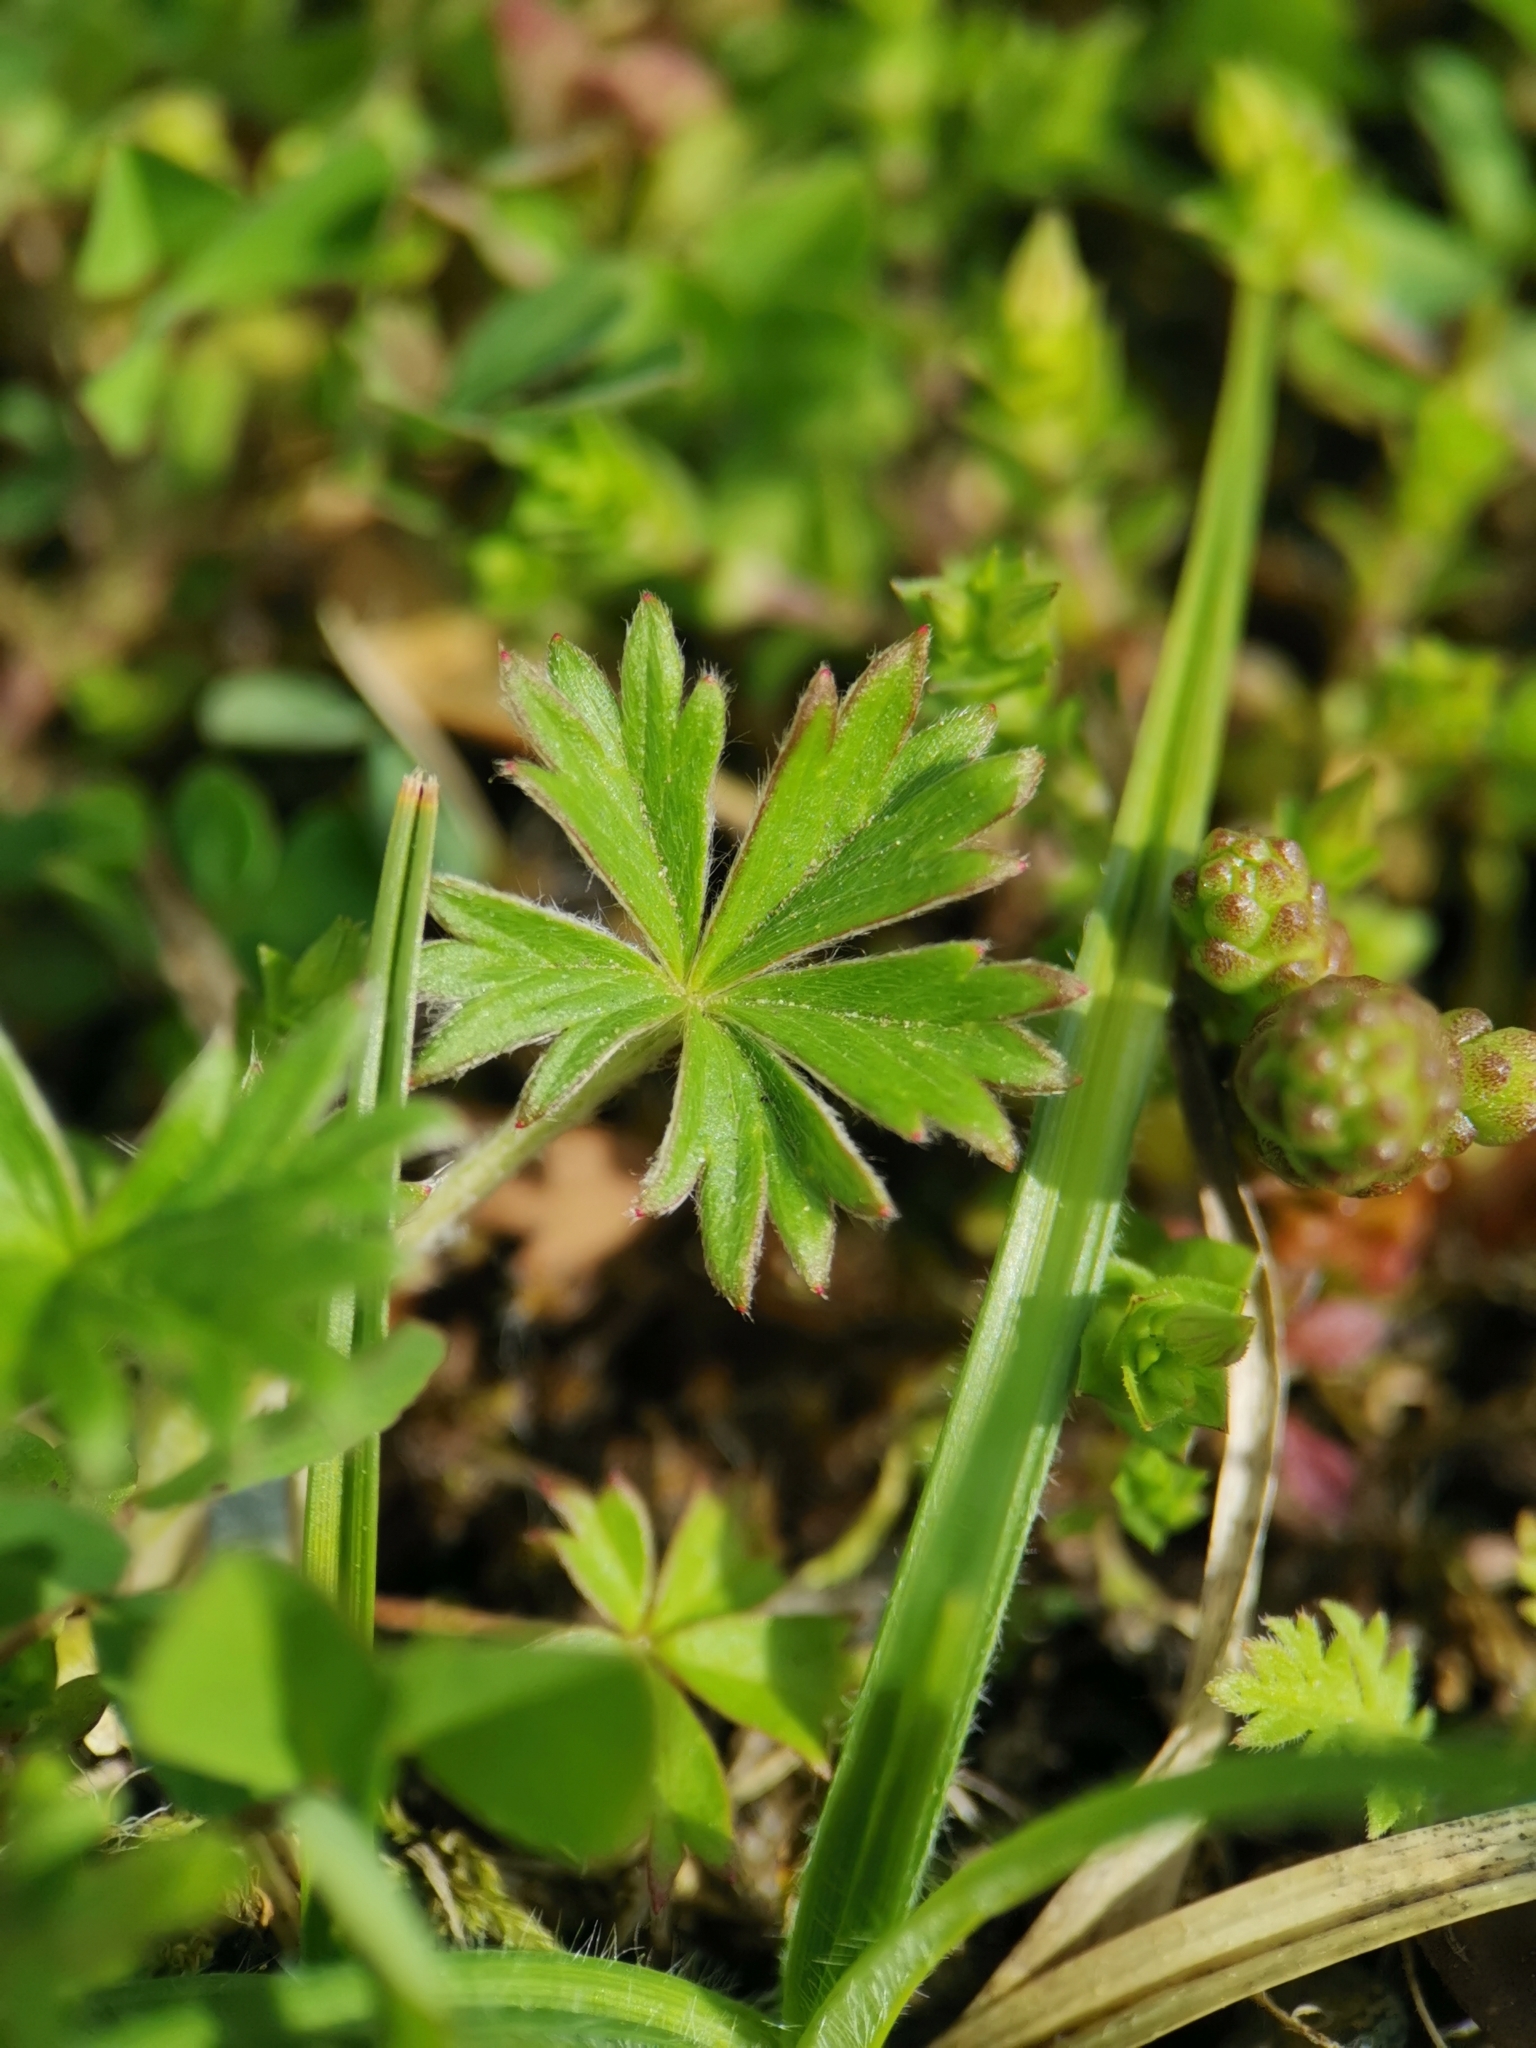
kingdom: Plantae
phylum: Tracheophyta
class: Magnoliopsida
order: Rosales
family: Rosaceae
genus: Potentilla
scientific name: Potentilla argentea
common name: Hoary cinquefoil
